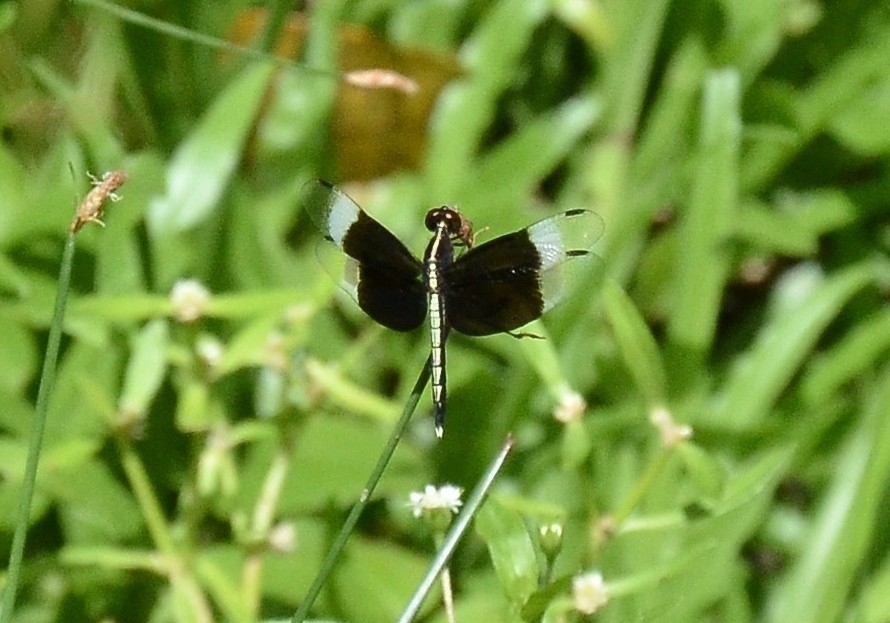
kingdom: Animalia
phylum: Arthropoda
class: Insecta
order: Odonata
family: Libellulidae
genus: Neurothemis
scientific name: Neurothemis tullia
